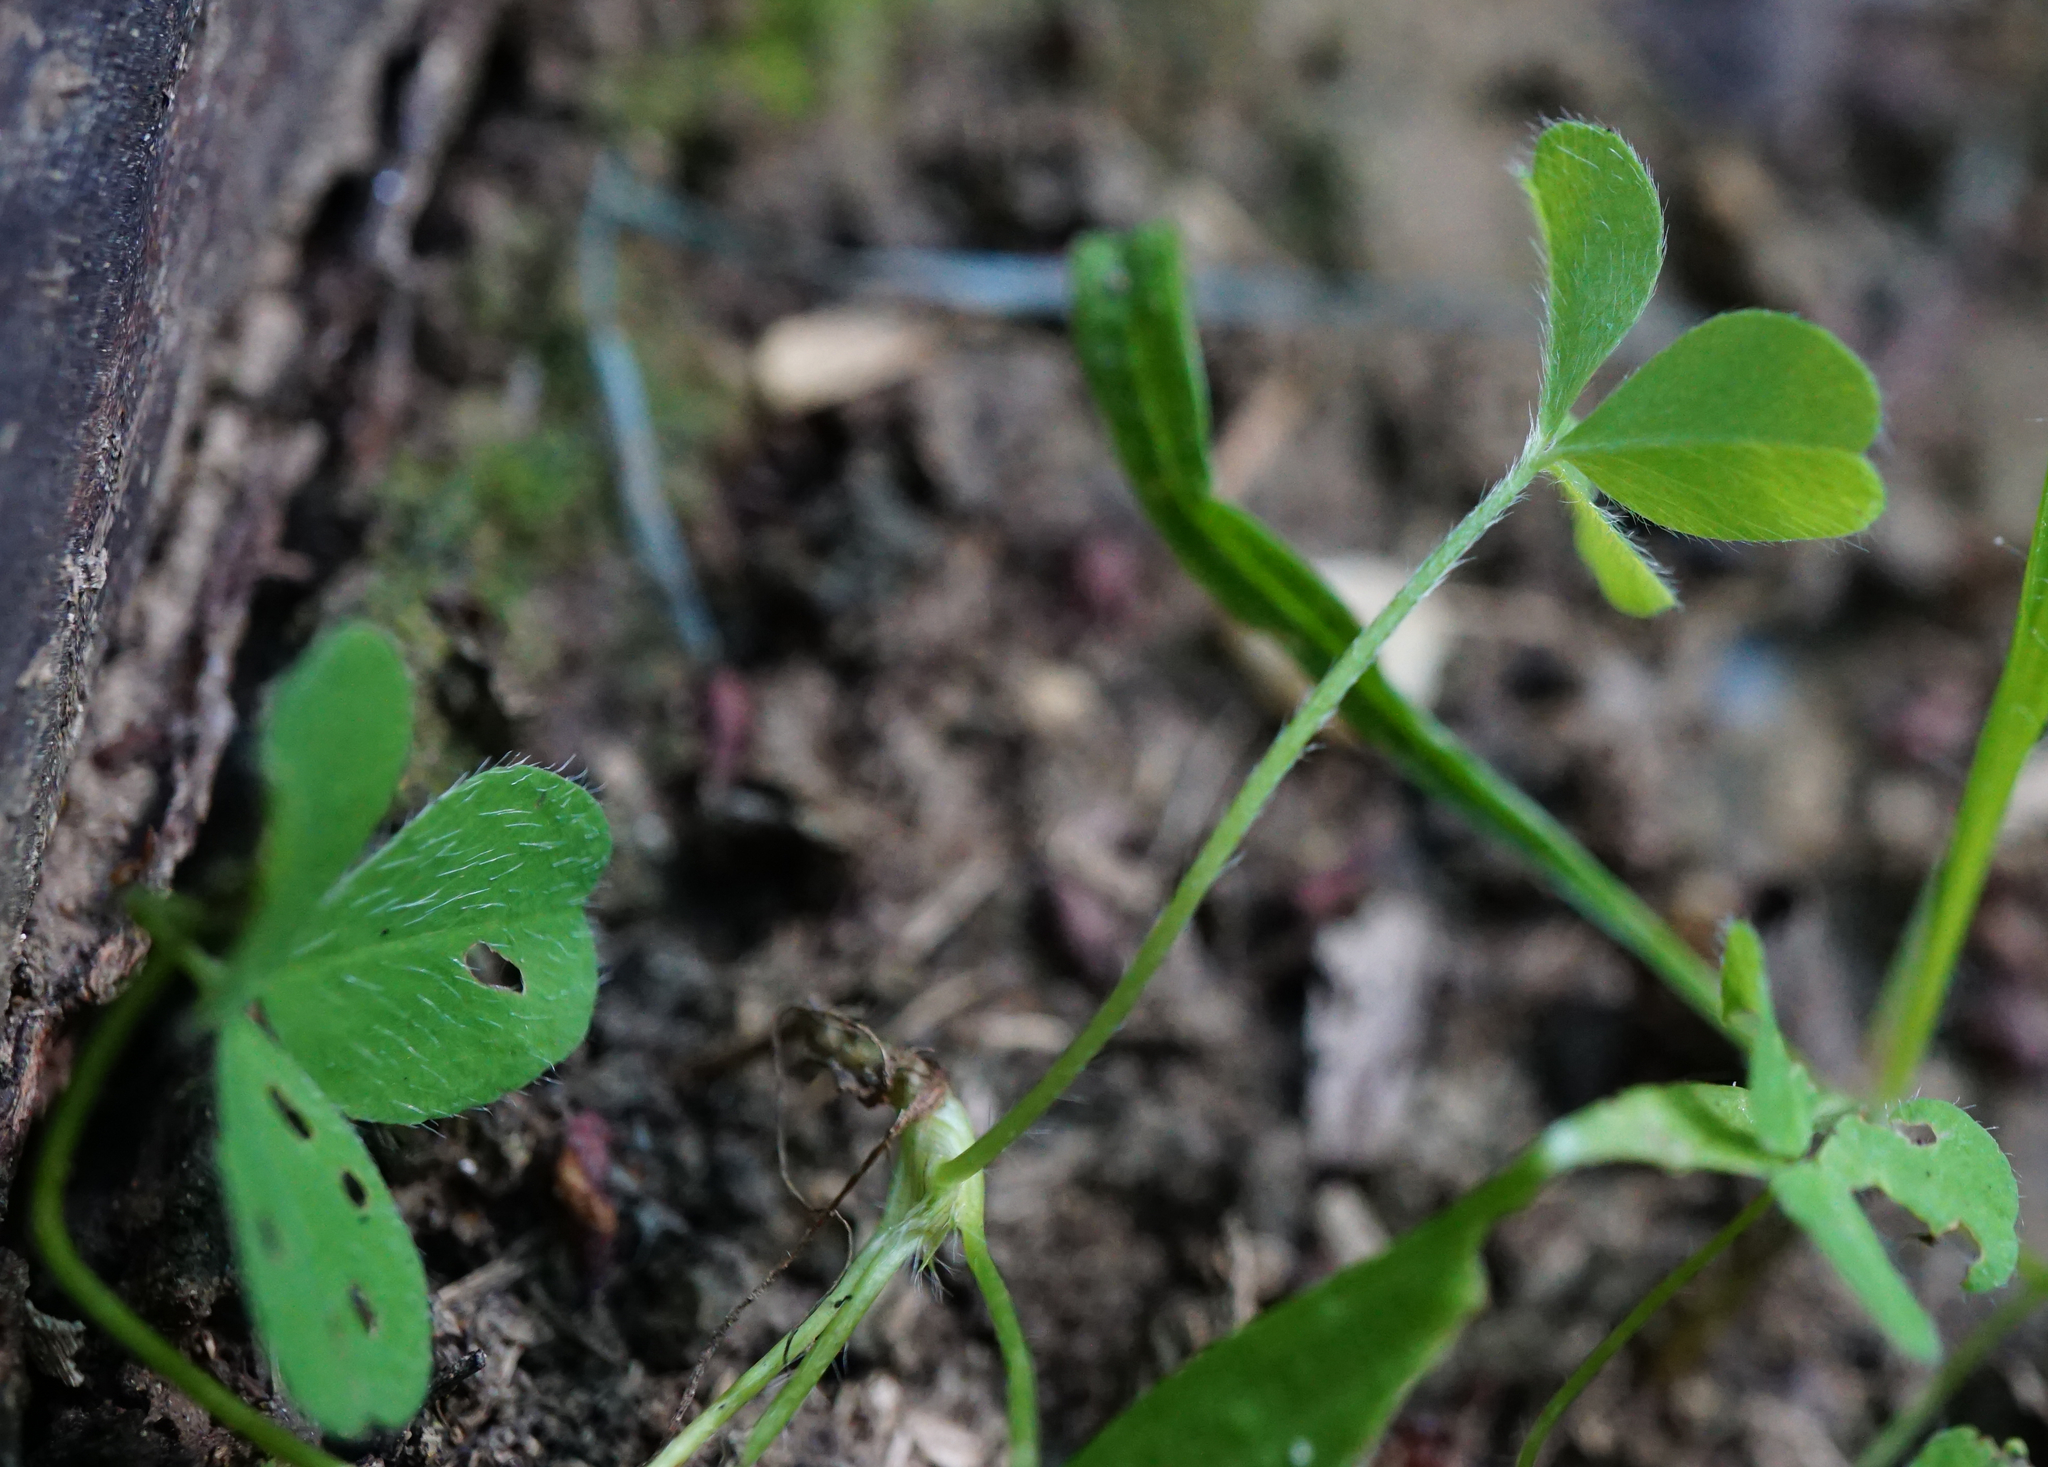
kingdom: Plantae
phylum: Tracheophyta
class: Magnoliopsida
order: Oxalidales
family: Oxalidaceae
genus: Oxalis
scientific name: Oxalis acetosella
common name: Wood-sorrel
